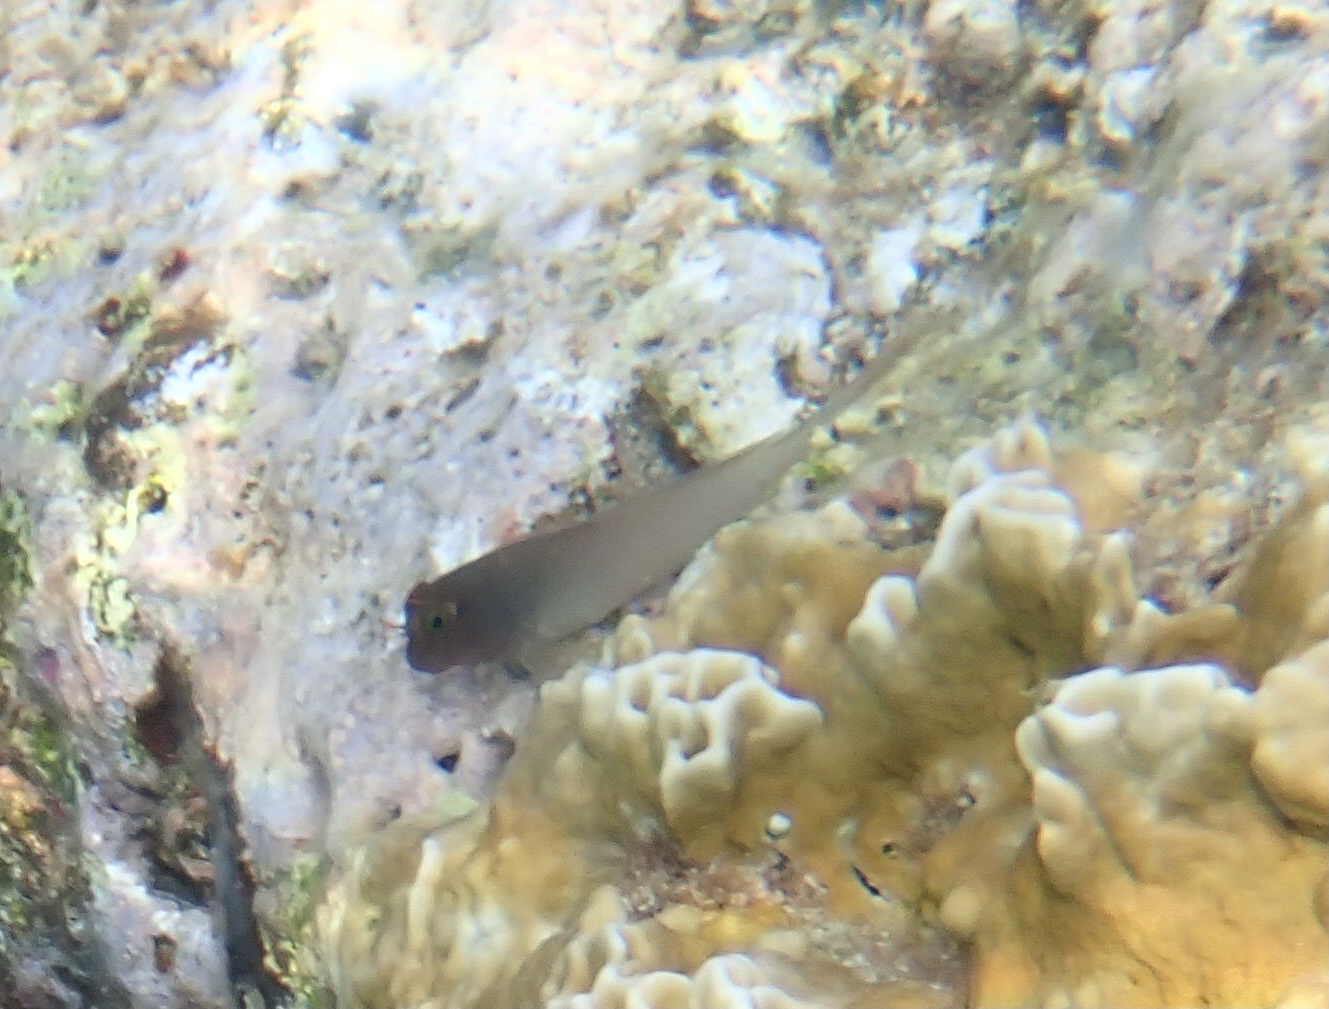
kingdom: Animalia
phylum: Chordata
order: Perciformes
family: Blenniidae
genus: Ophioblennius
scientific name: Ophioblennius macclurei
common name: Redlip blenny
